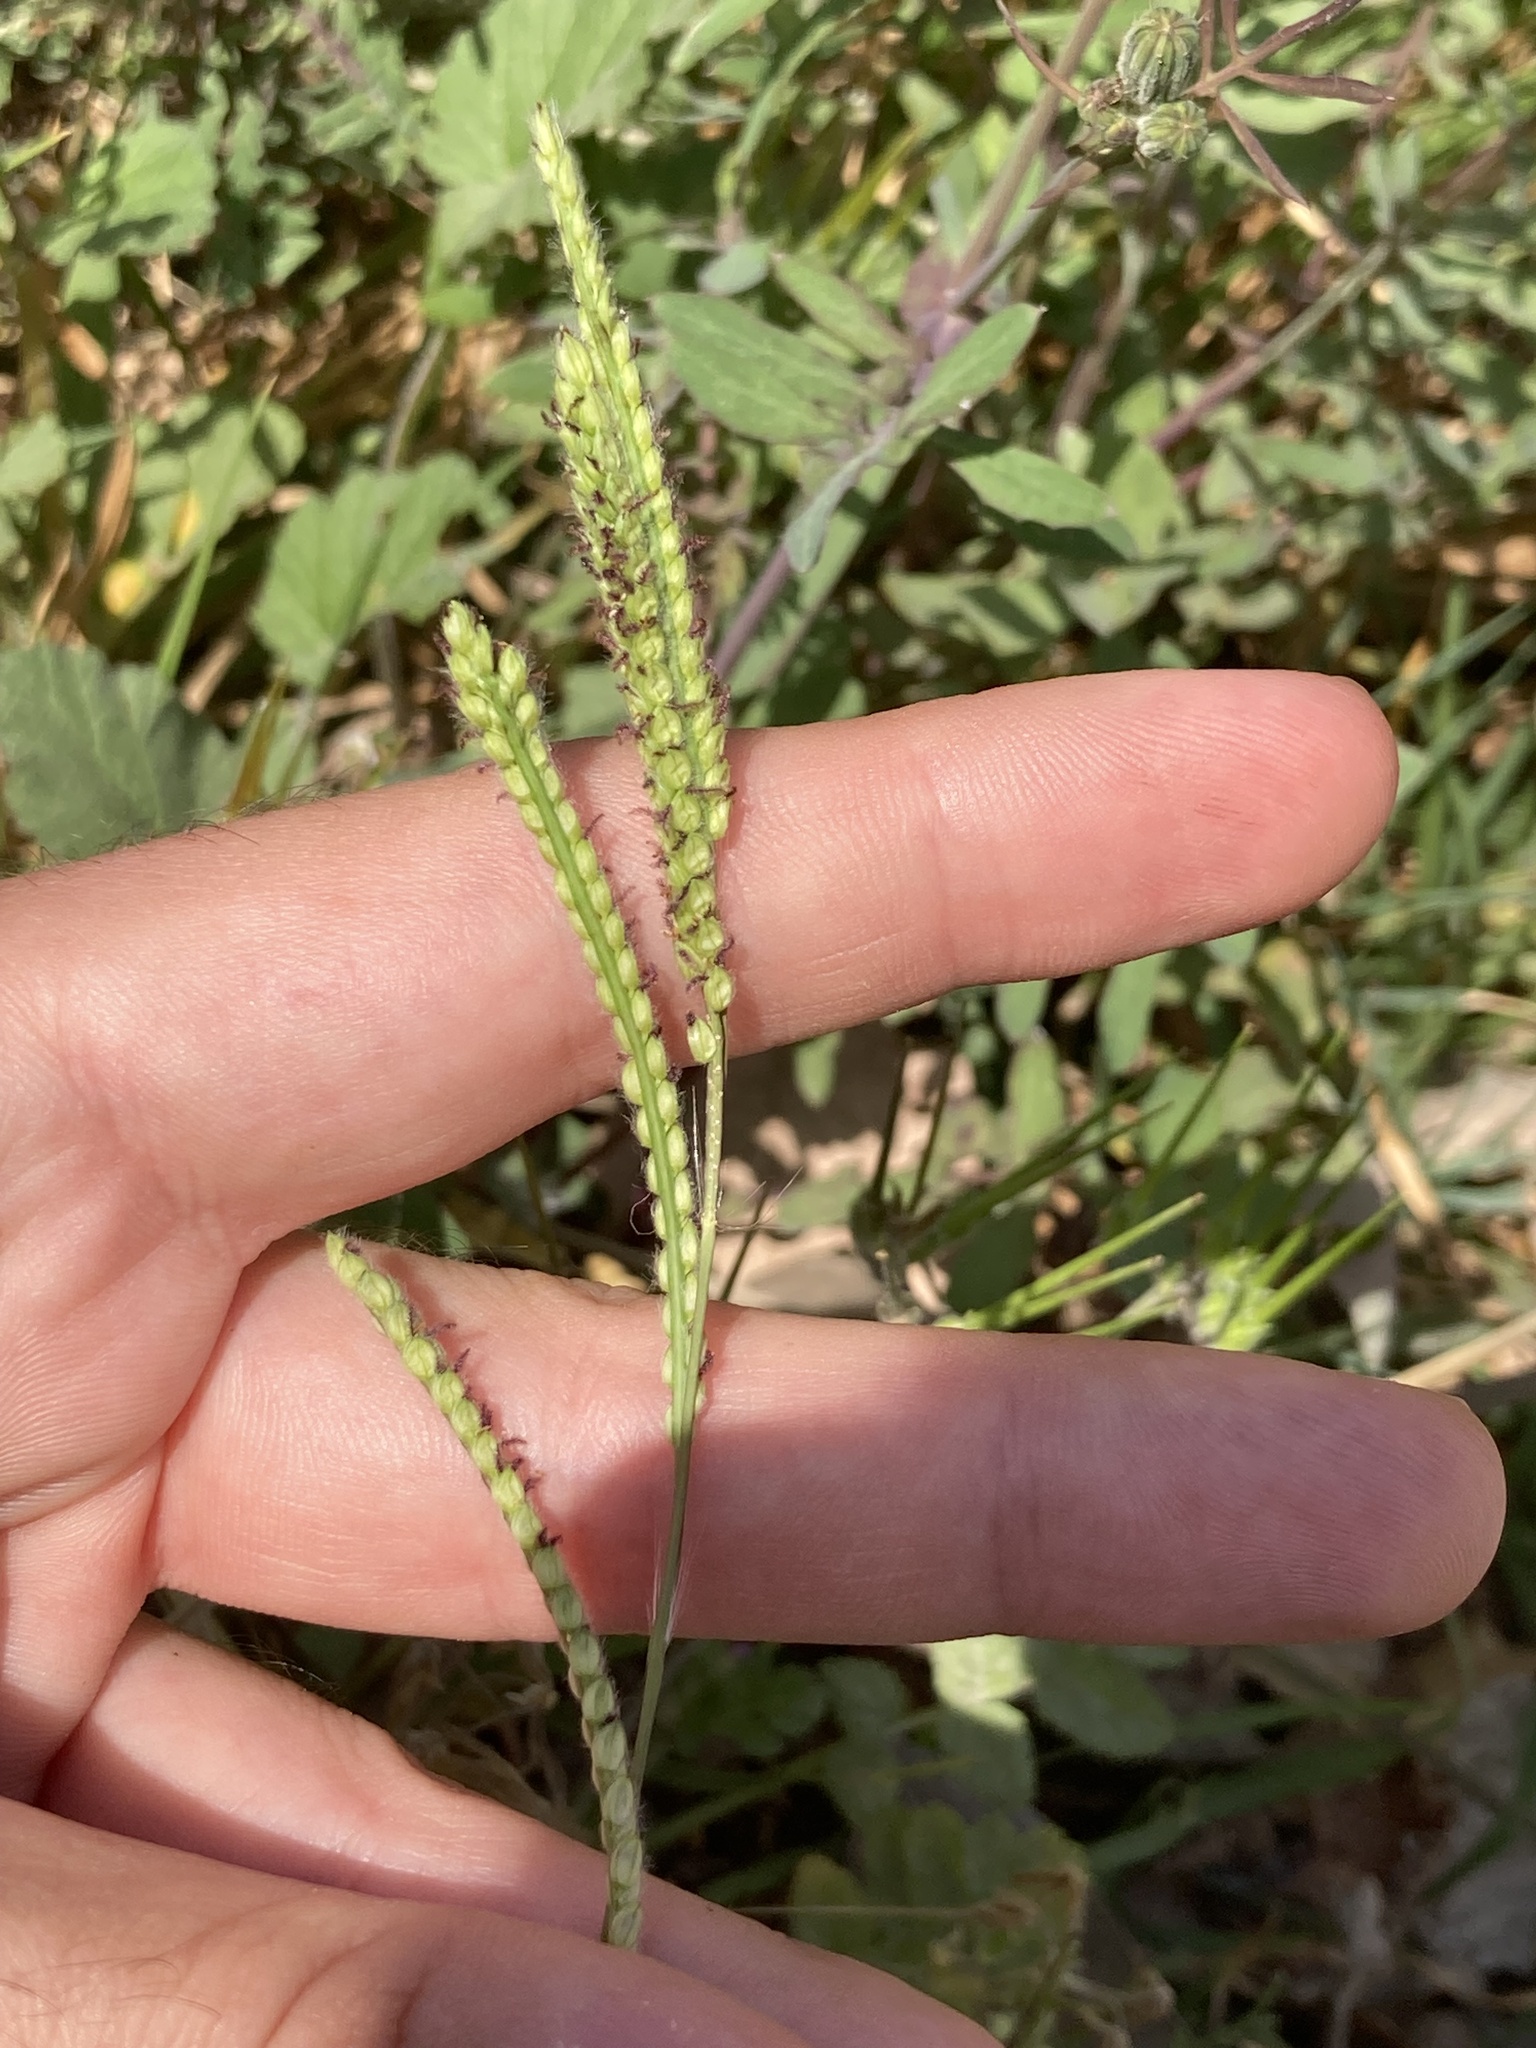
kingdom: Plantae
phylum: Tracheophyta
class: Liliopsida
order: Poales
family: Poaceae
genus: Paspalum
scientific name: Paspalum dilatatum
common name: Dallisgrass
